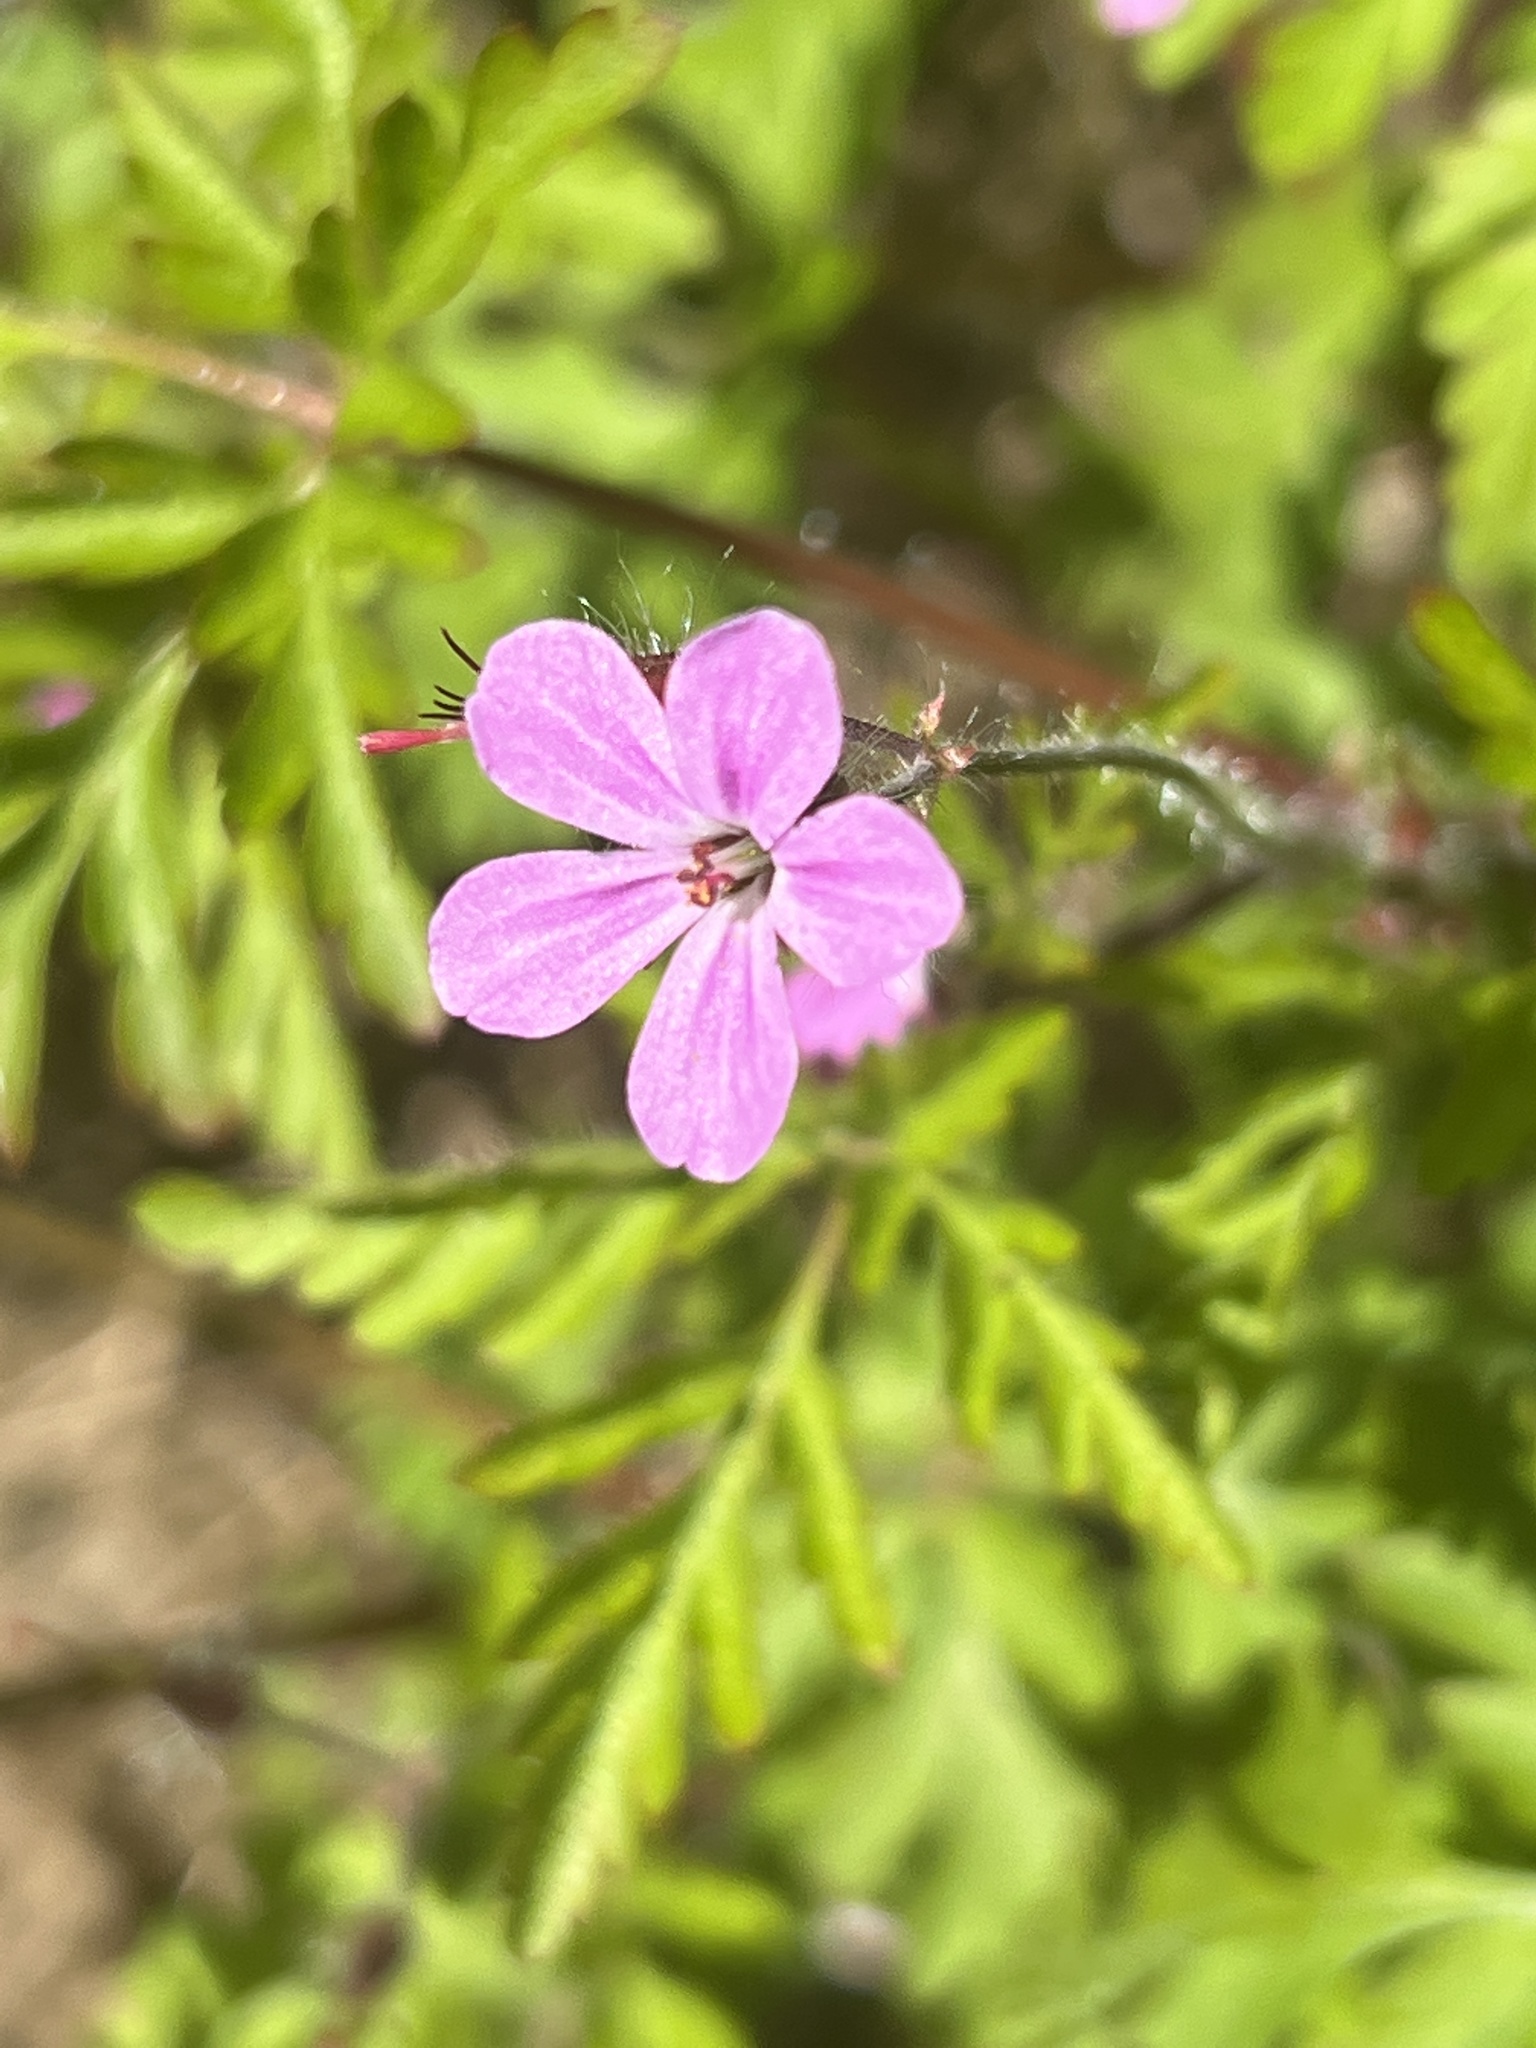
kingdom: Plantae
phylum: Tracheophyta
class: Magnoliopsida
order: Geraniales
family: Geraniaceae
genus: Geranium
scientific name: Geranium robertianum
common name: Herb-robert
